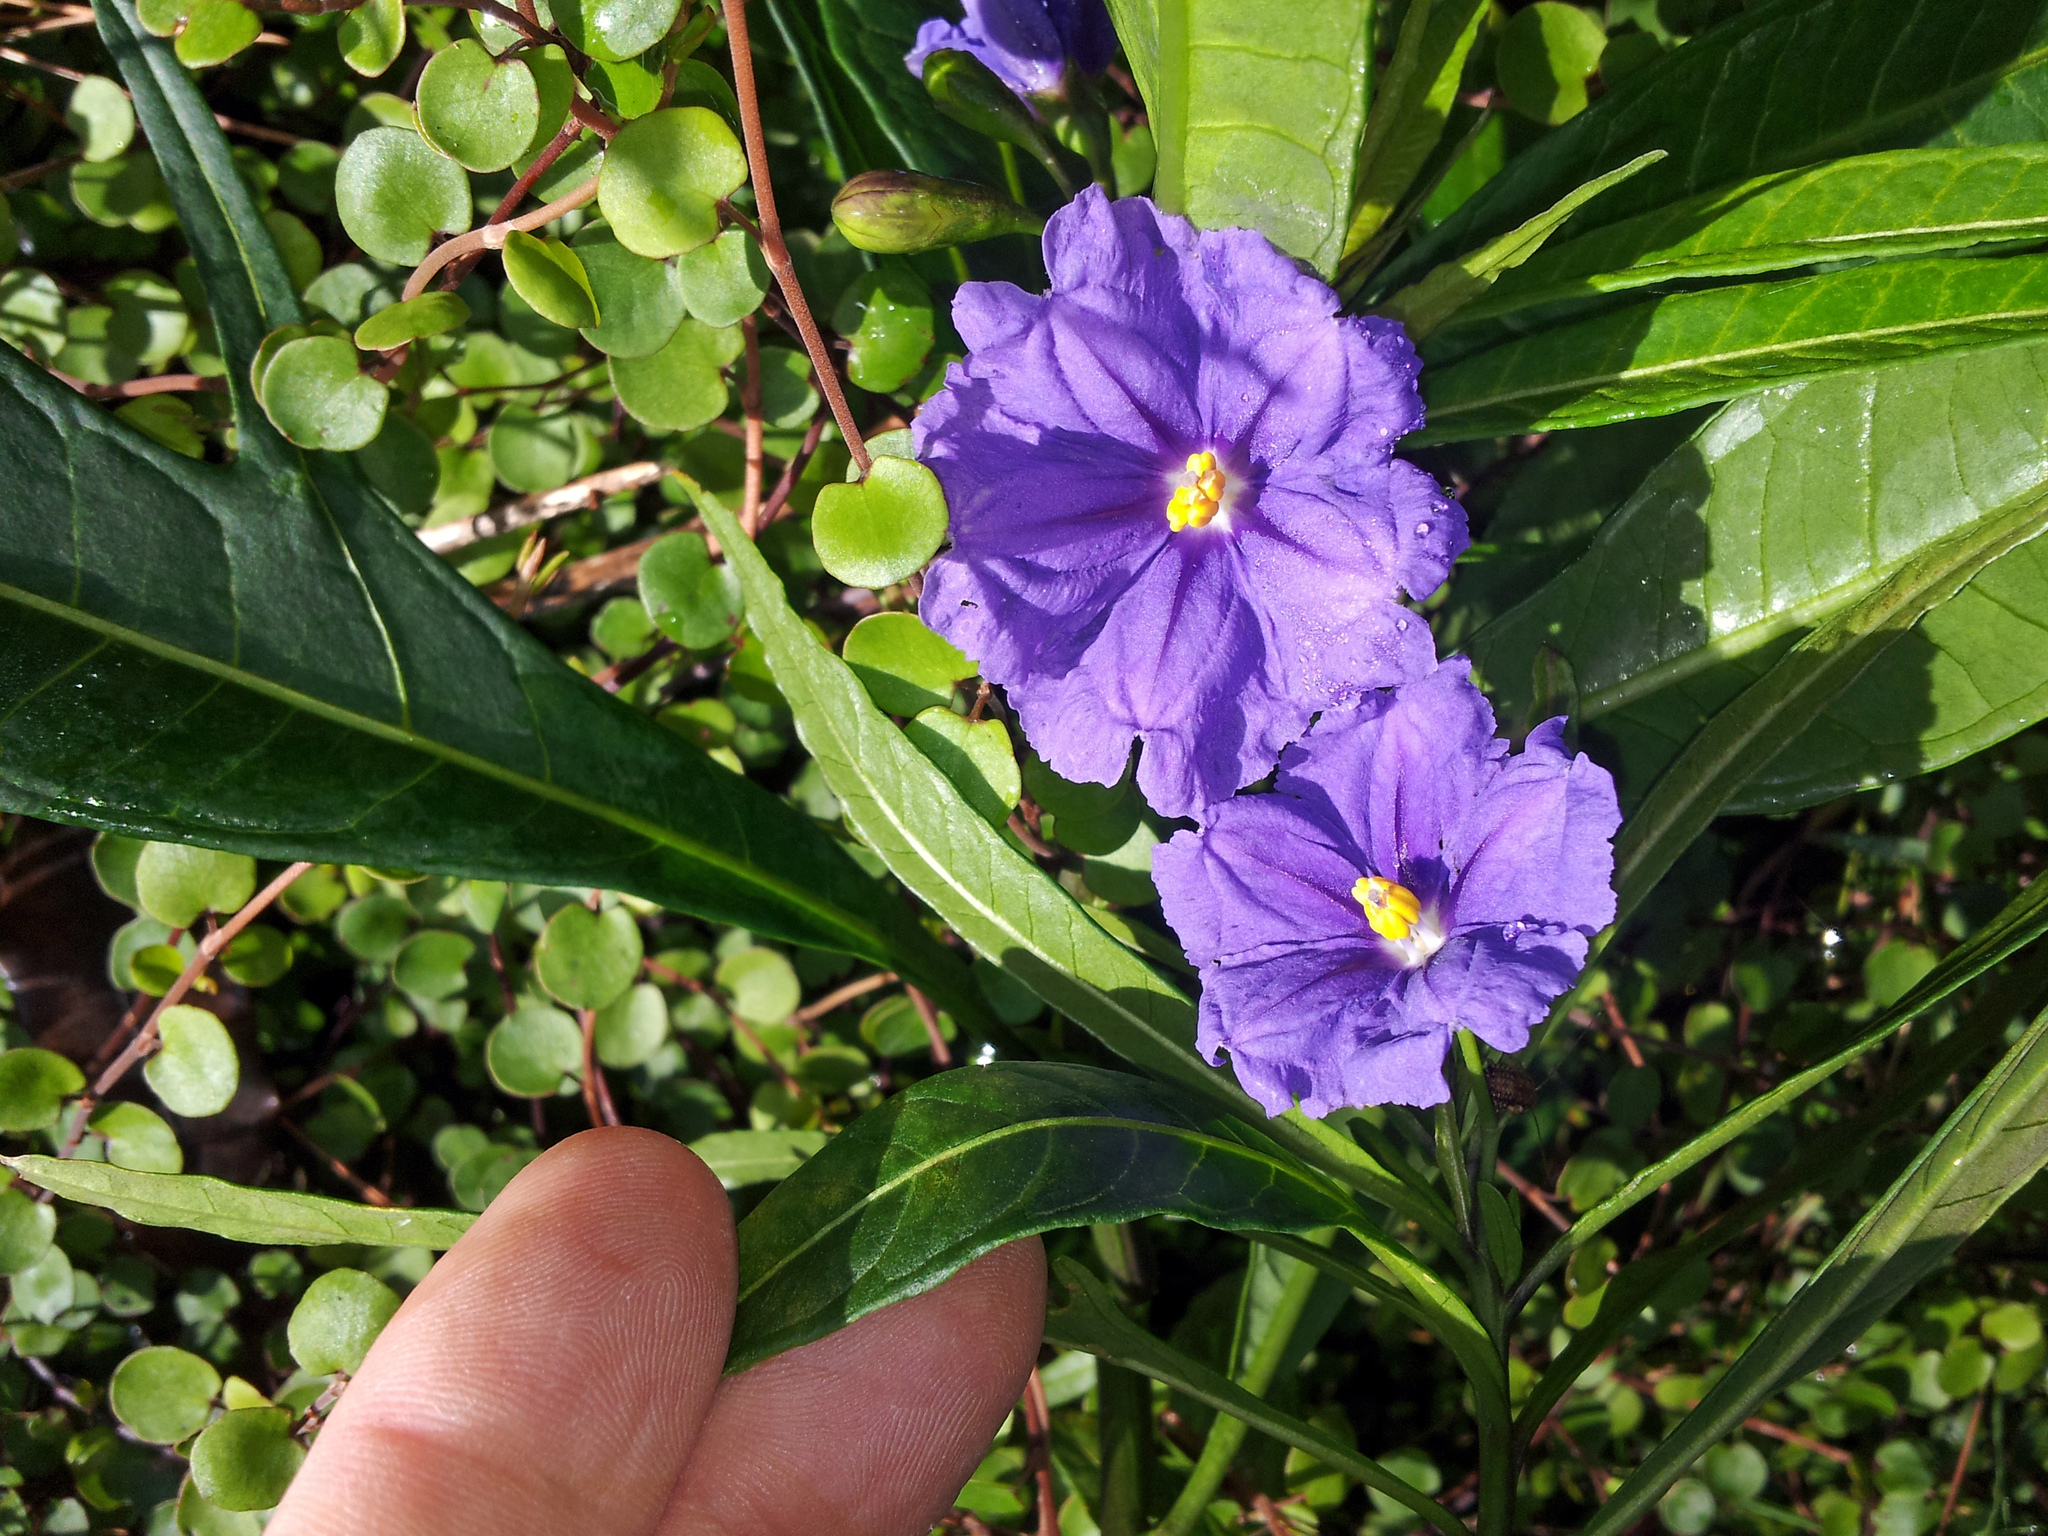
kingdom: Plantae
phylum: Tracheophyta
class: Magnoliopsida
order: Solanales
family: Solanaceae
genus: Solanum
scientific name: Solanum laciniatum
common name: Kangaroo-apple
